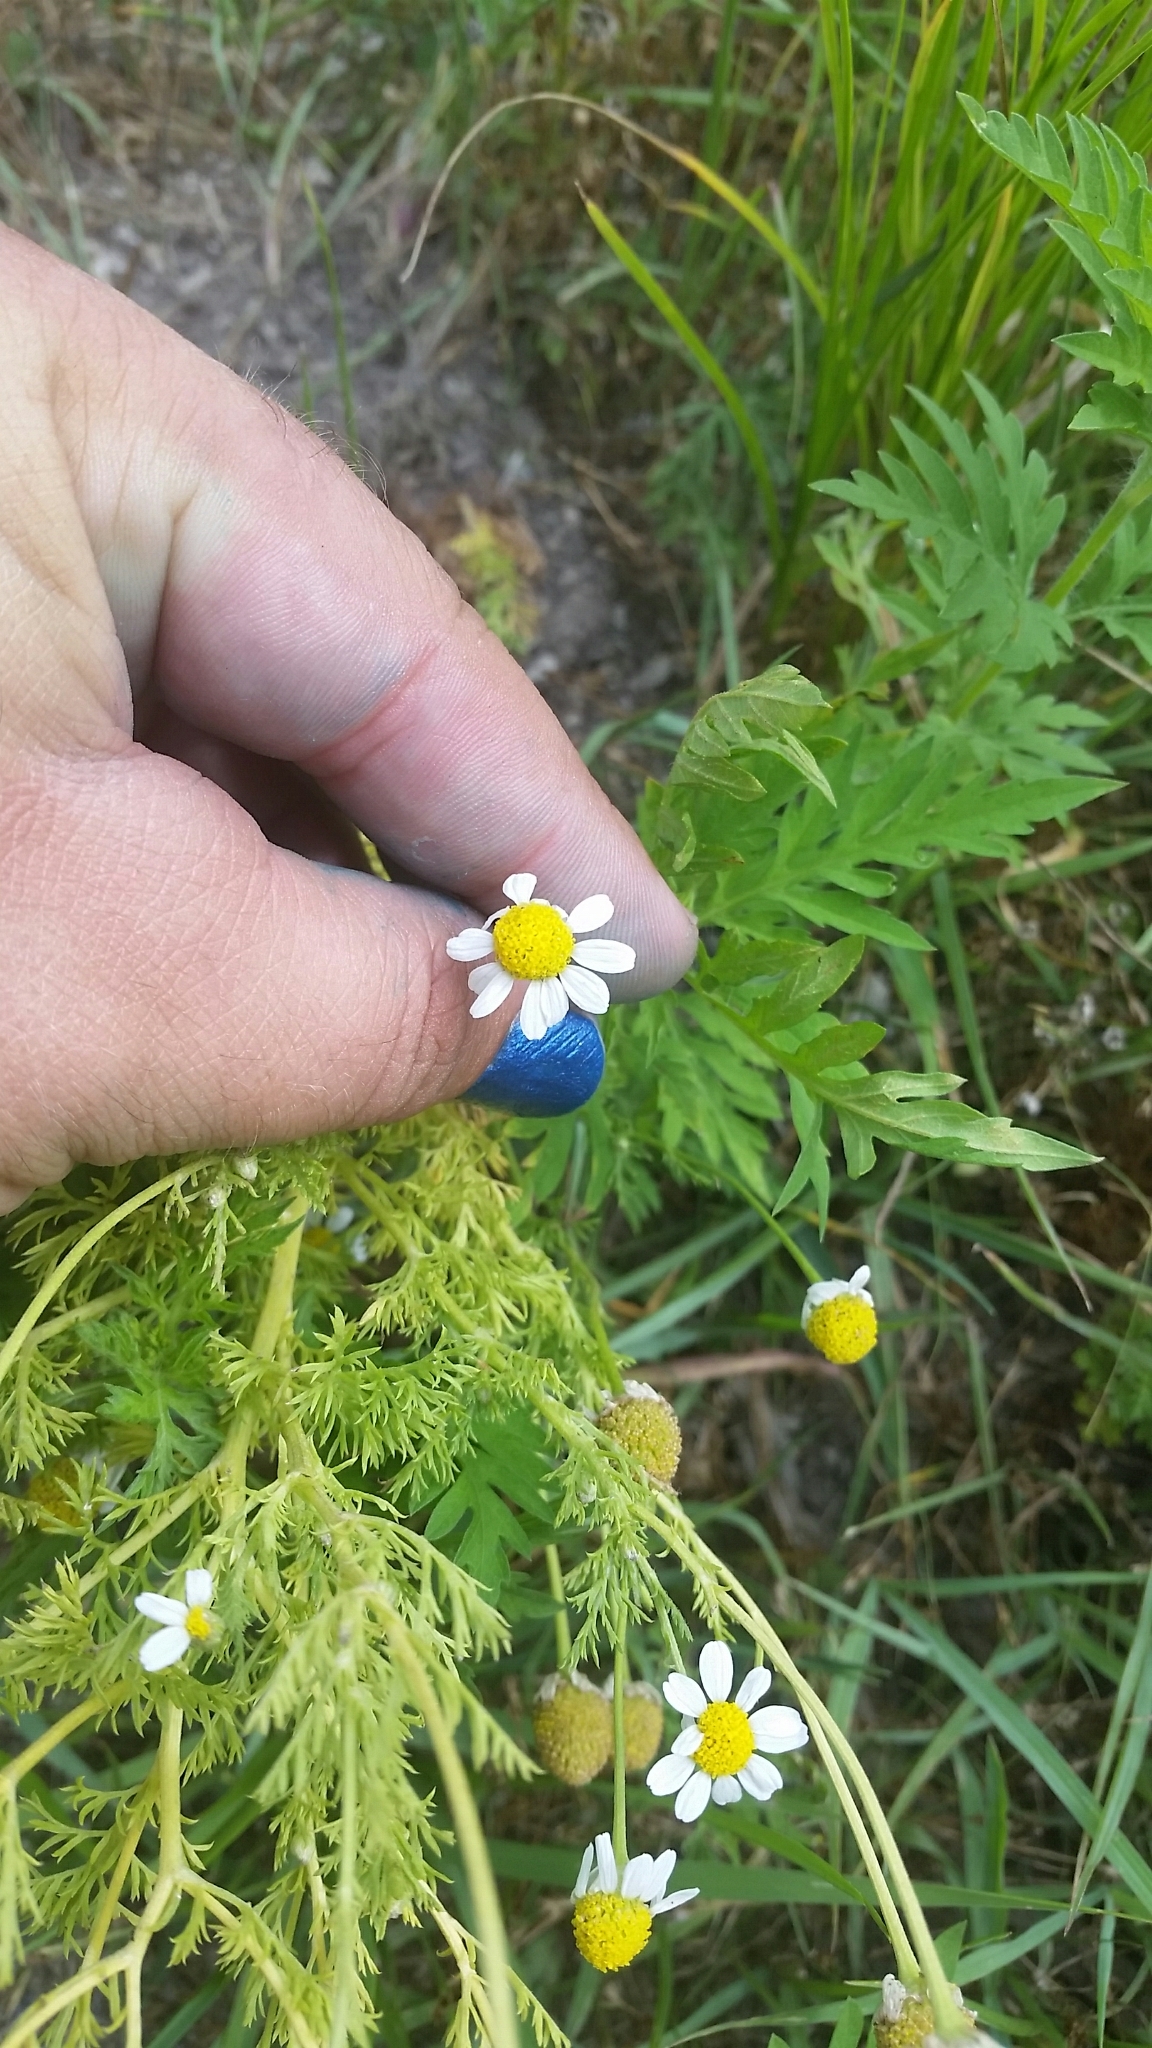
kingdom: Plantae
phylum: Tracheophyta
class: Magnoliopsida
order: Asterales
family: Asteraceae
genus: Anthemis
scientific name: Anthemis cotula
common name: Stinking chamomile
